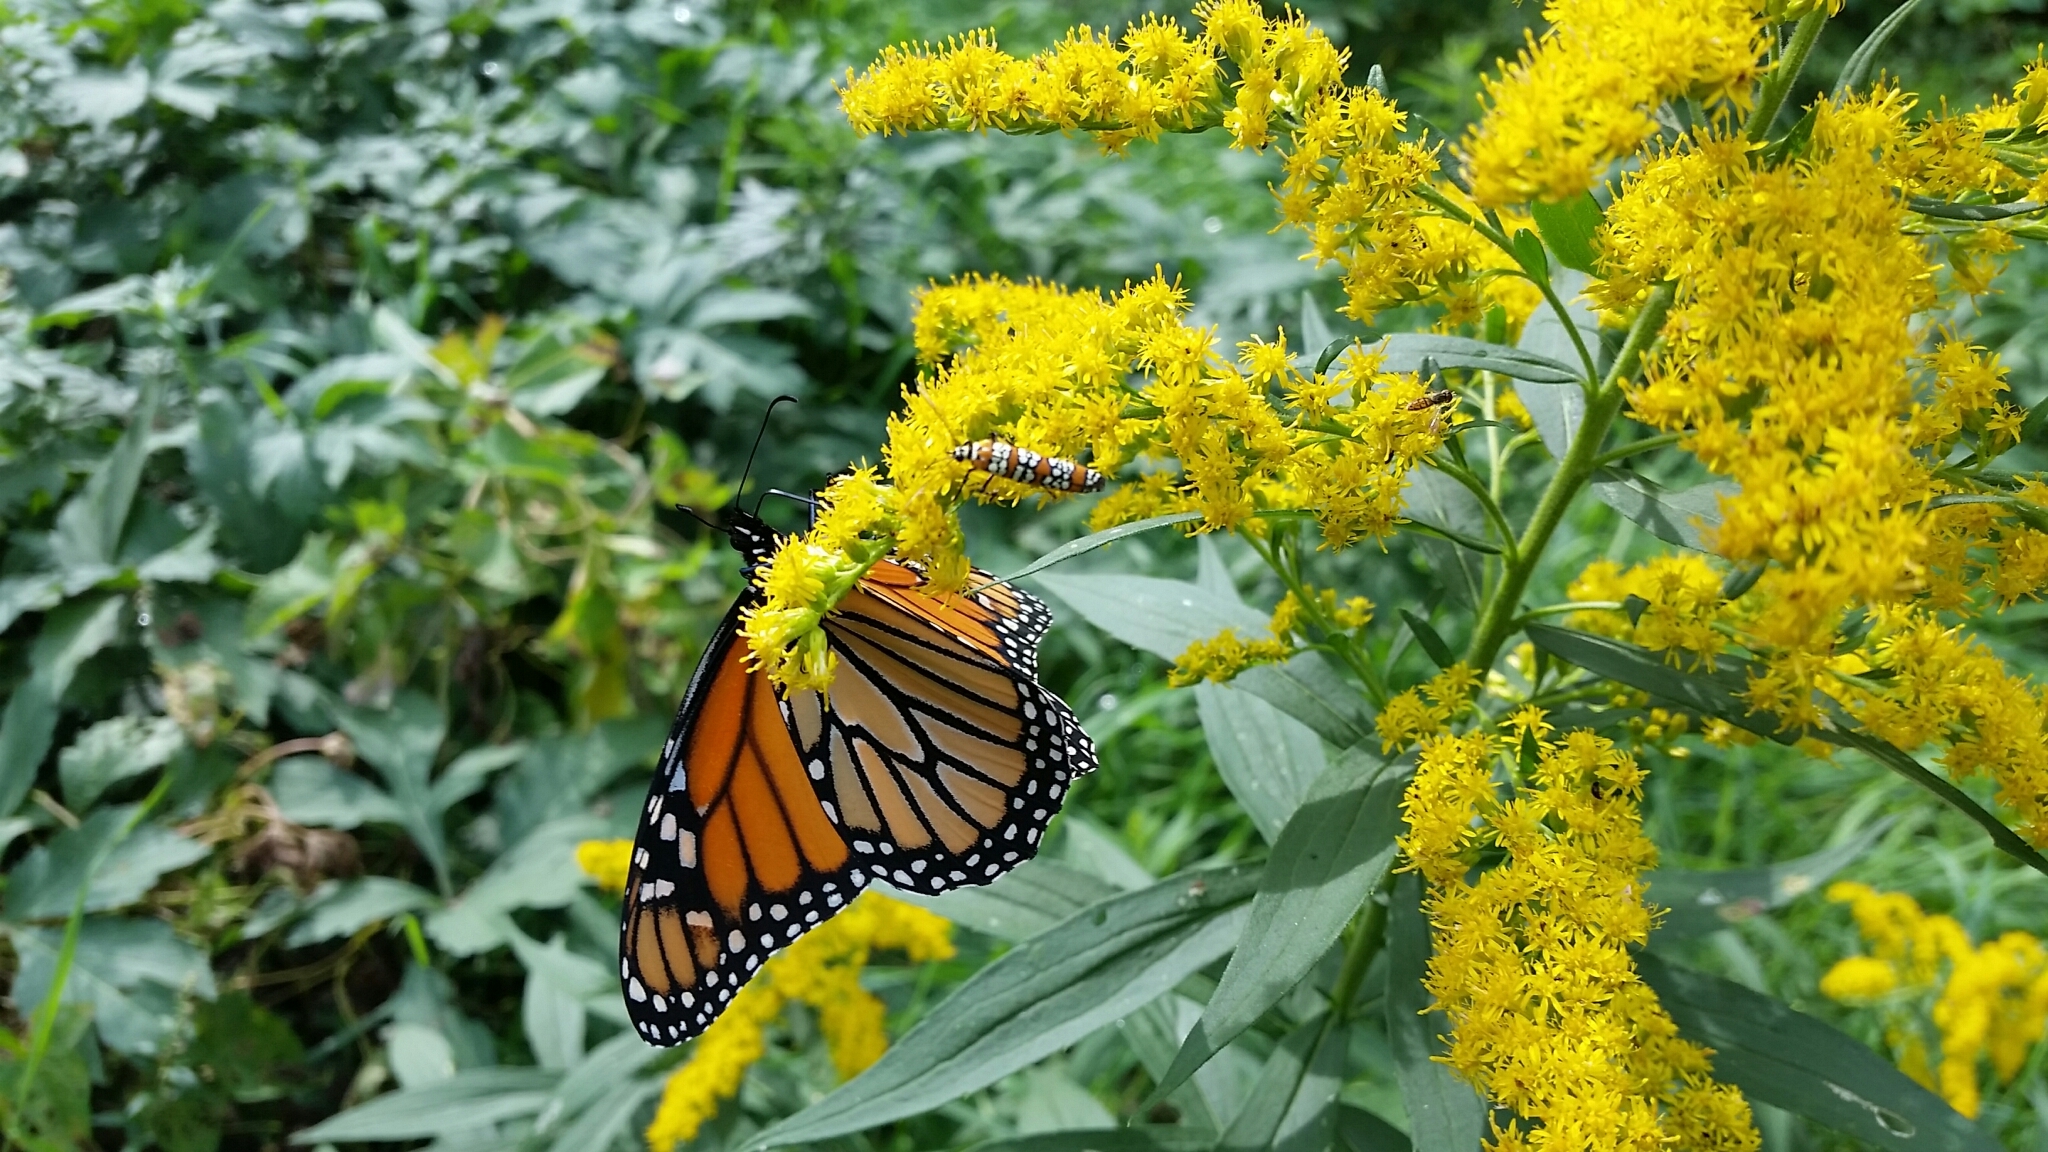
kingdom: Animalia
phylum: Arthropoda
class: Insecta
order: Lepidoptera
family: Attevidae
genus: Atteva
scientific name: Atteva punctella
